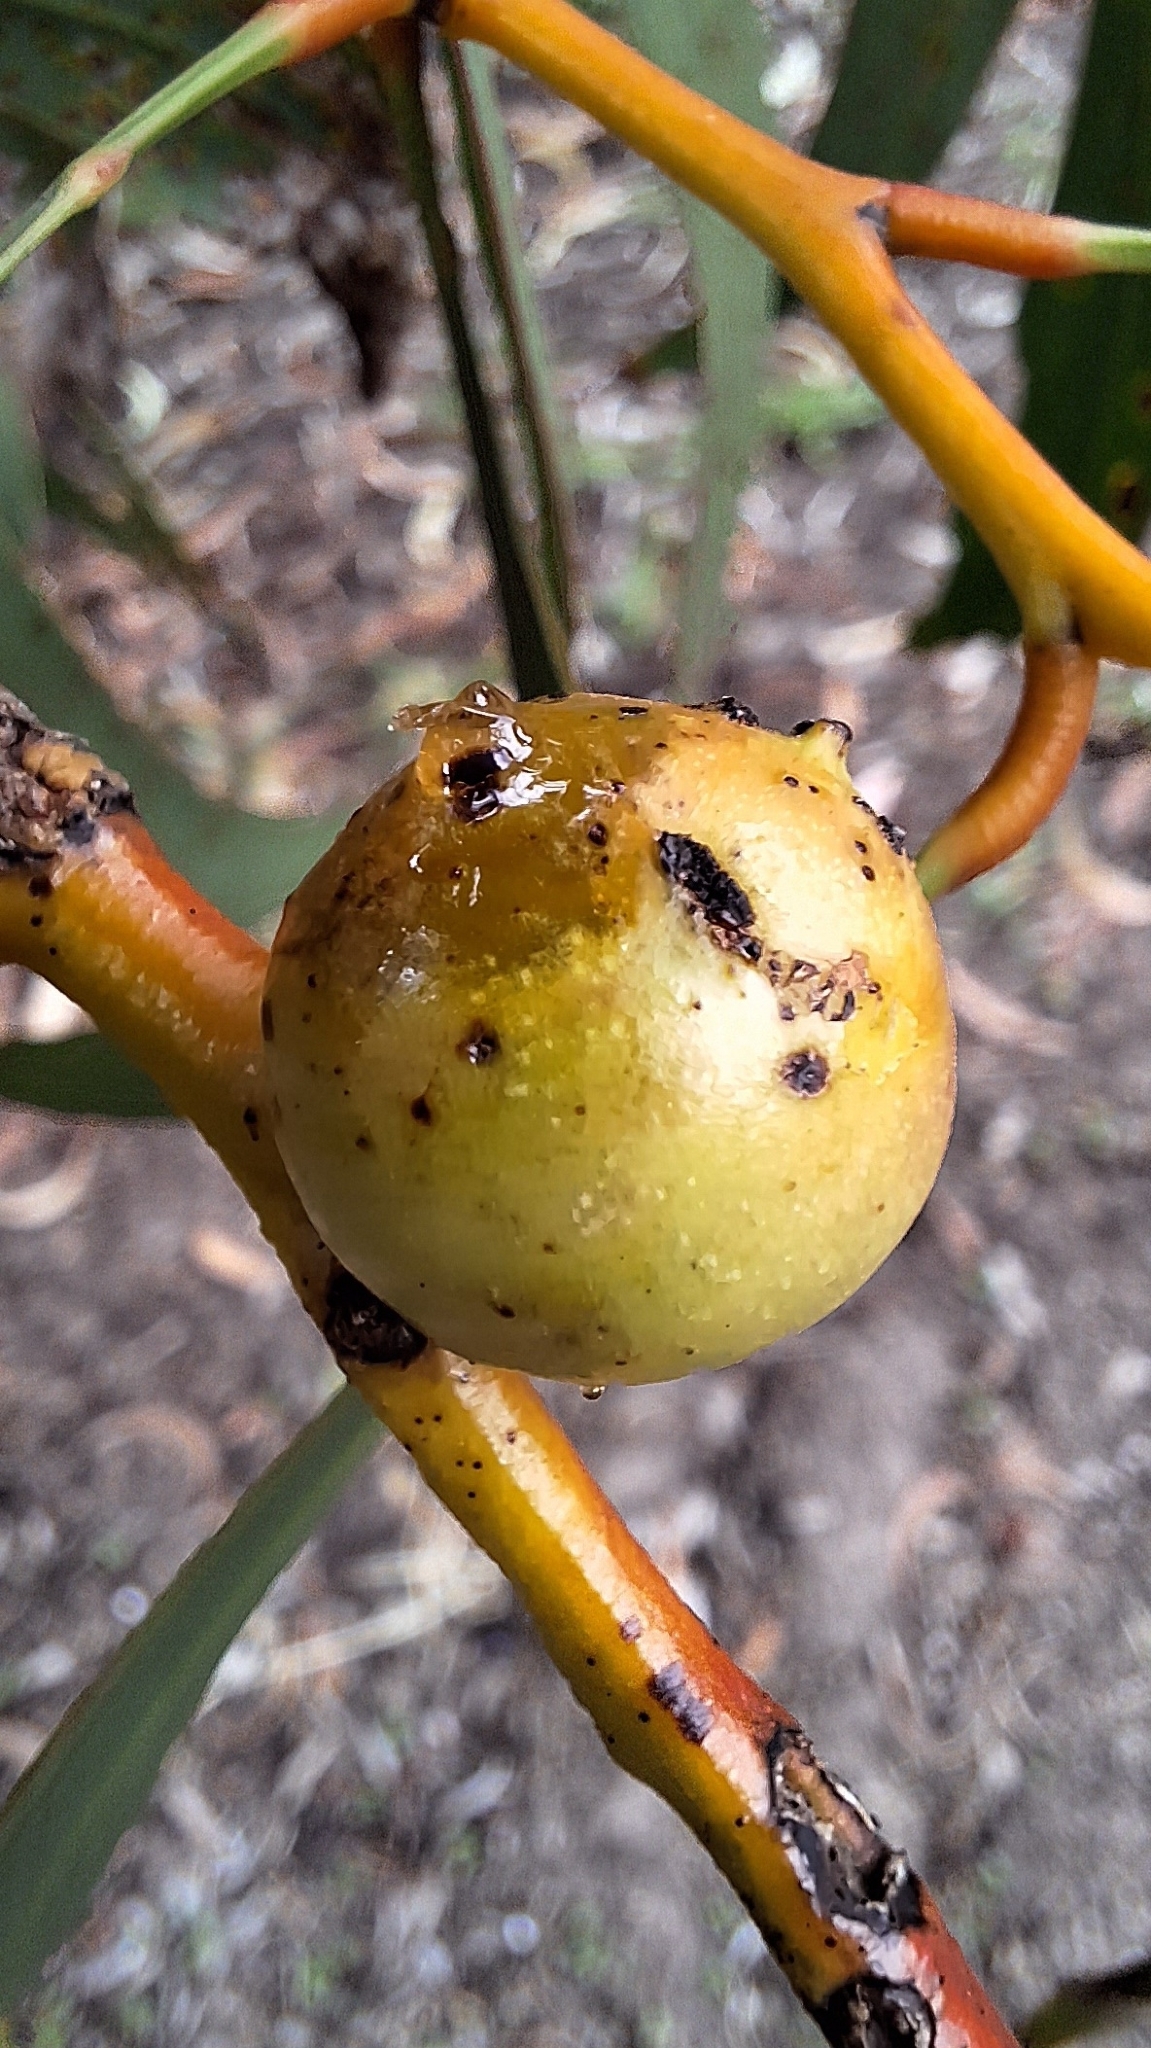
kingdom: Animalia
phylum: Arthropoda
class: Insecta
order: Hymenoptera
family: Pteromalidae
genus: Trichilogaster
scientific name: Trichilogaster signiventris
